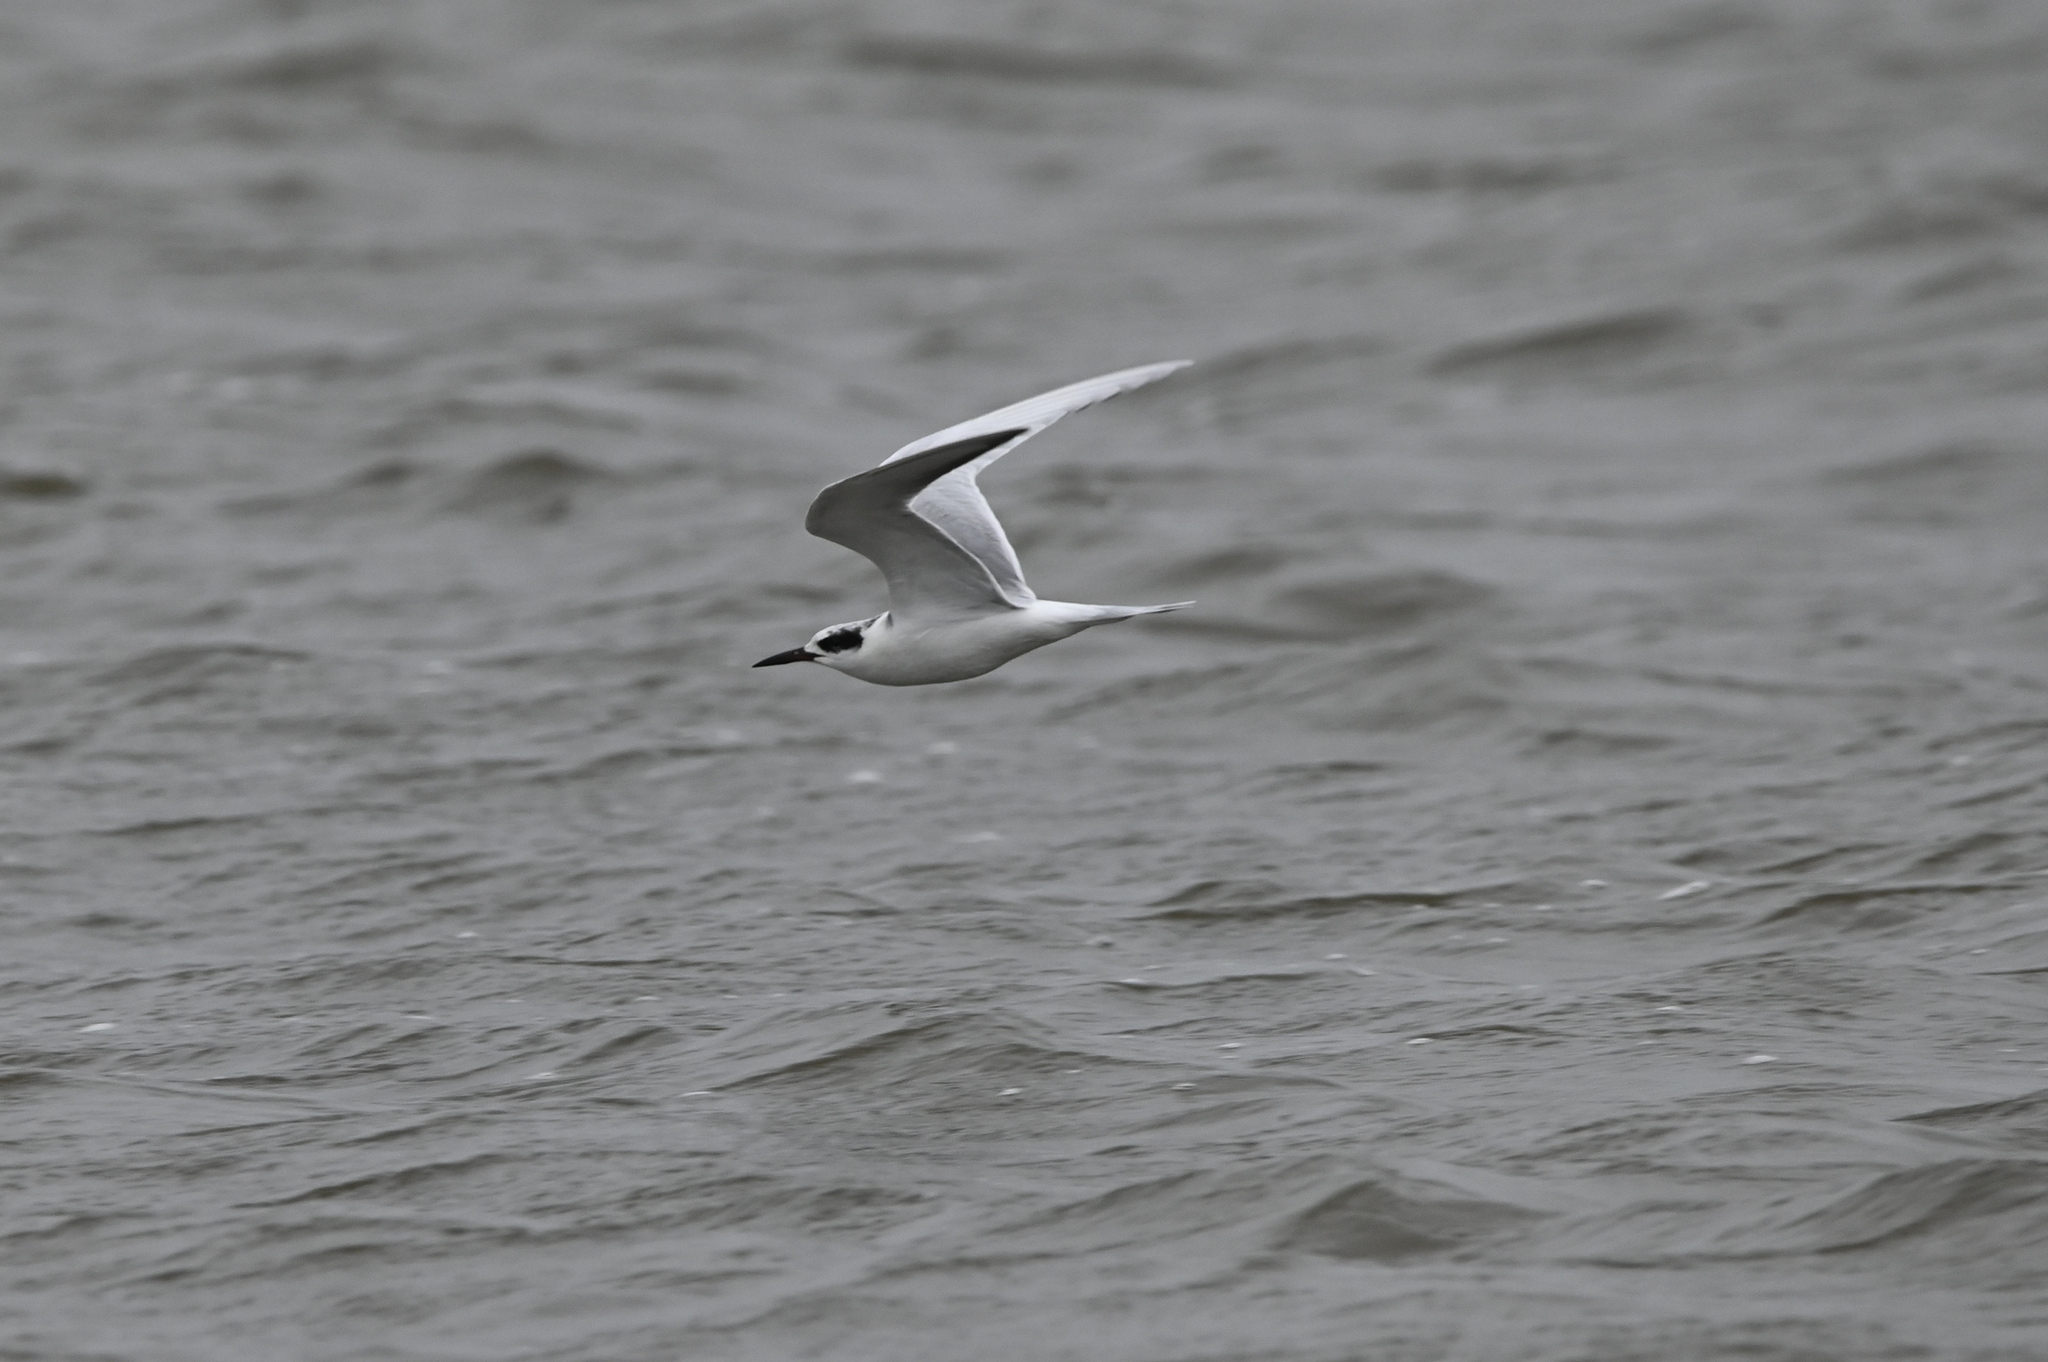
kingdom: Animalia
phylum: Chordata
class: Aves
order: Charadriiformes
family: Laridae
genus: Sterna
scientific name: Sterna forsteri
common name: Forster's tern
